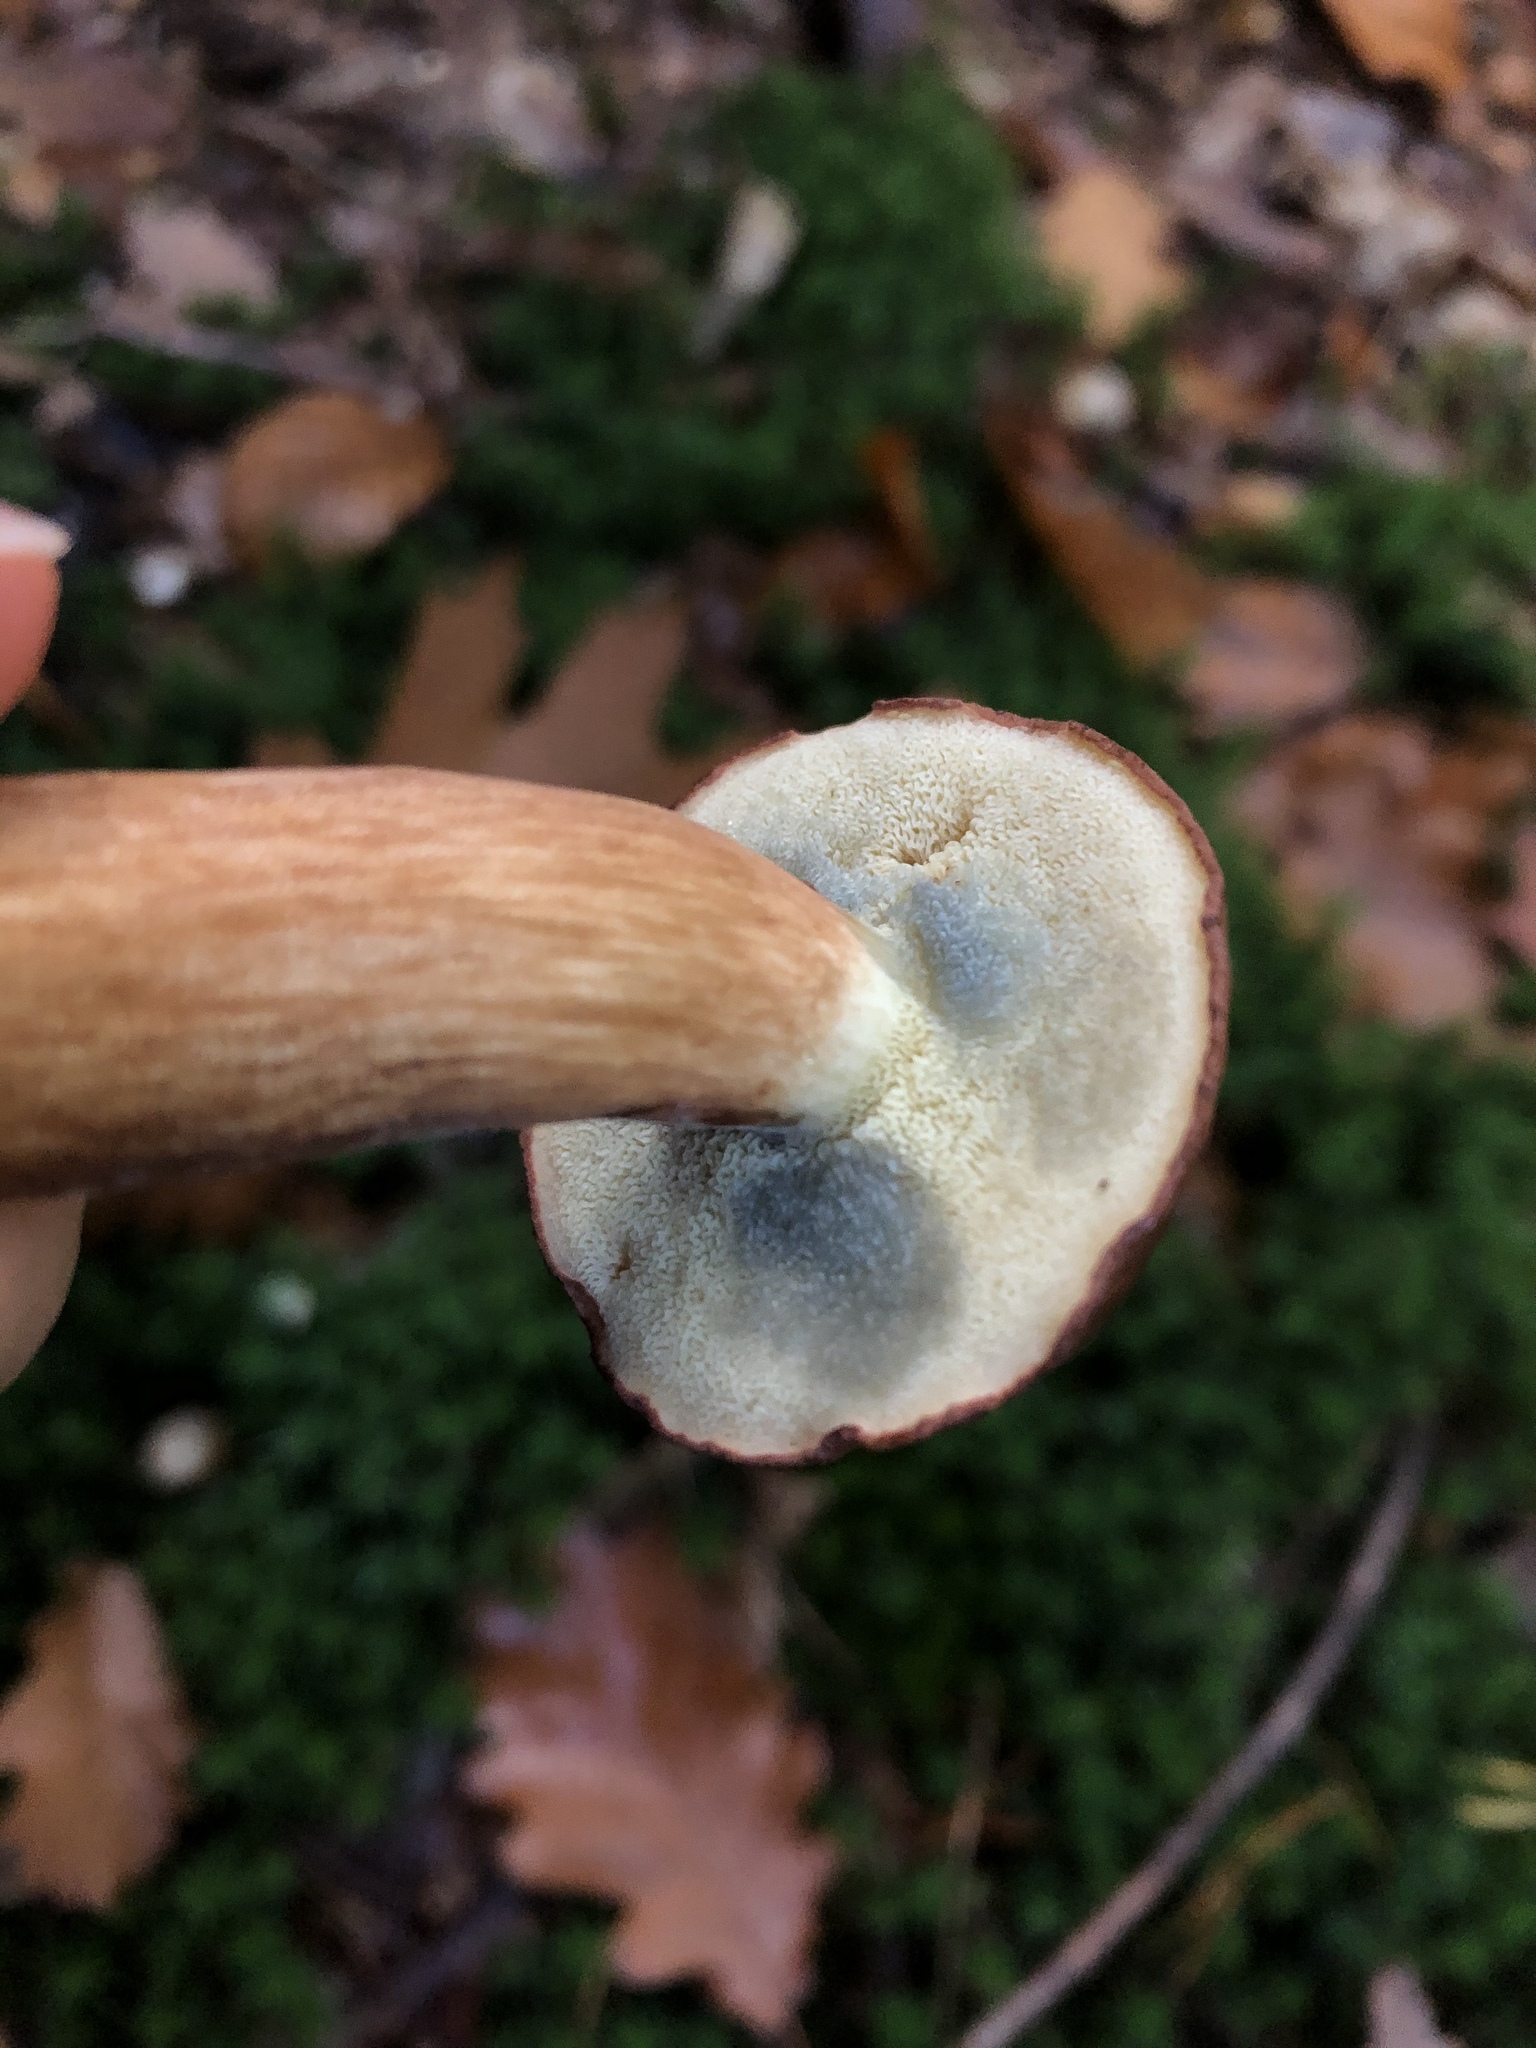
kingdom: Fungi
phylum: Basidiomycota
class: Agaricomycetes
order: Boletales
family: Boletaceae
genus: Imleria
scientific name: Imleria badia
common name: Bay bolete
